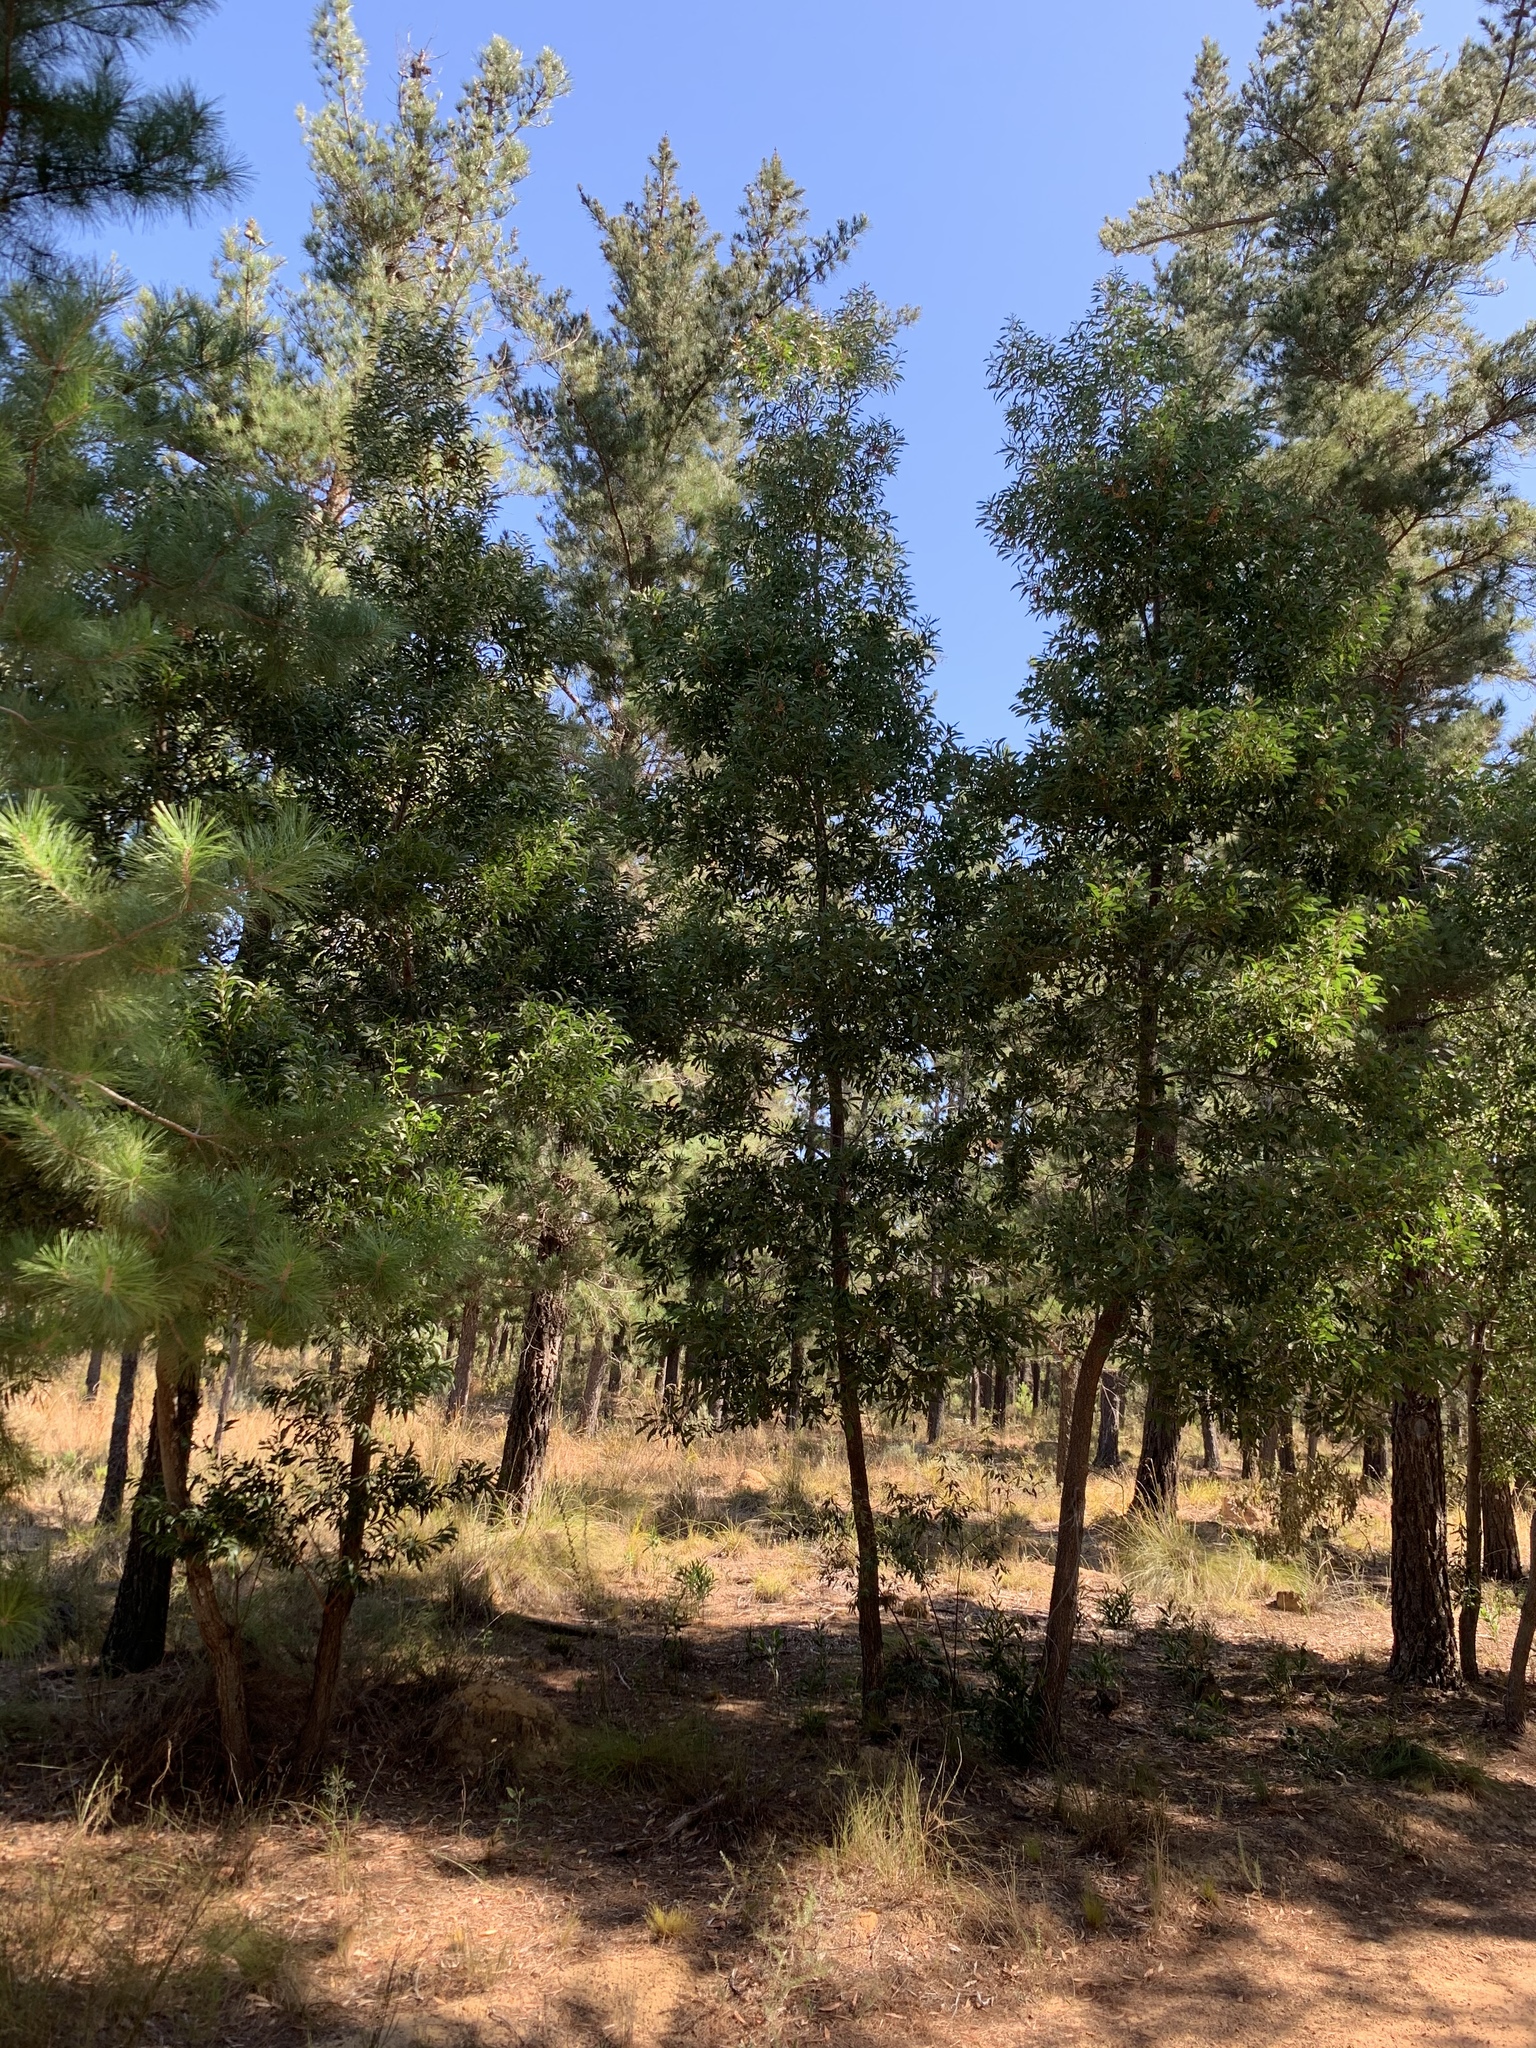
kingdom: Plantae
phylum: Tracheophyta
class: Magnoliopsida
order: Fabales
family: Fabaceae
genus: Acacia
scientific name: Acacia melanoxylon
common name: Blackwood
